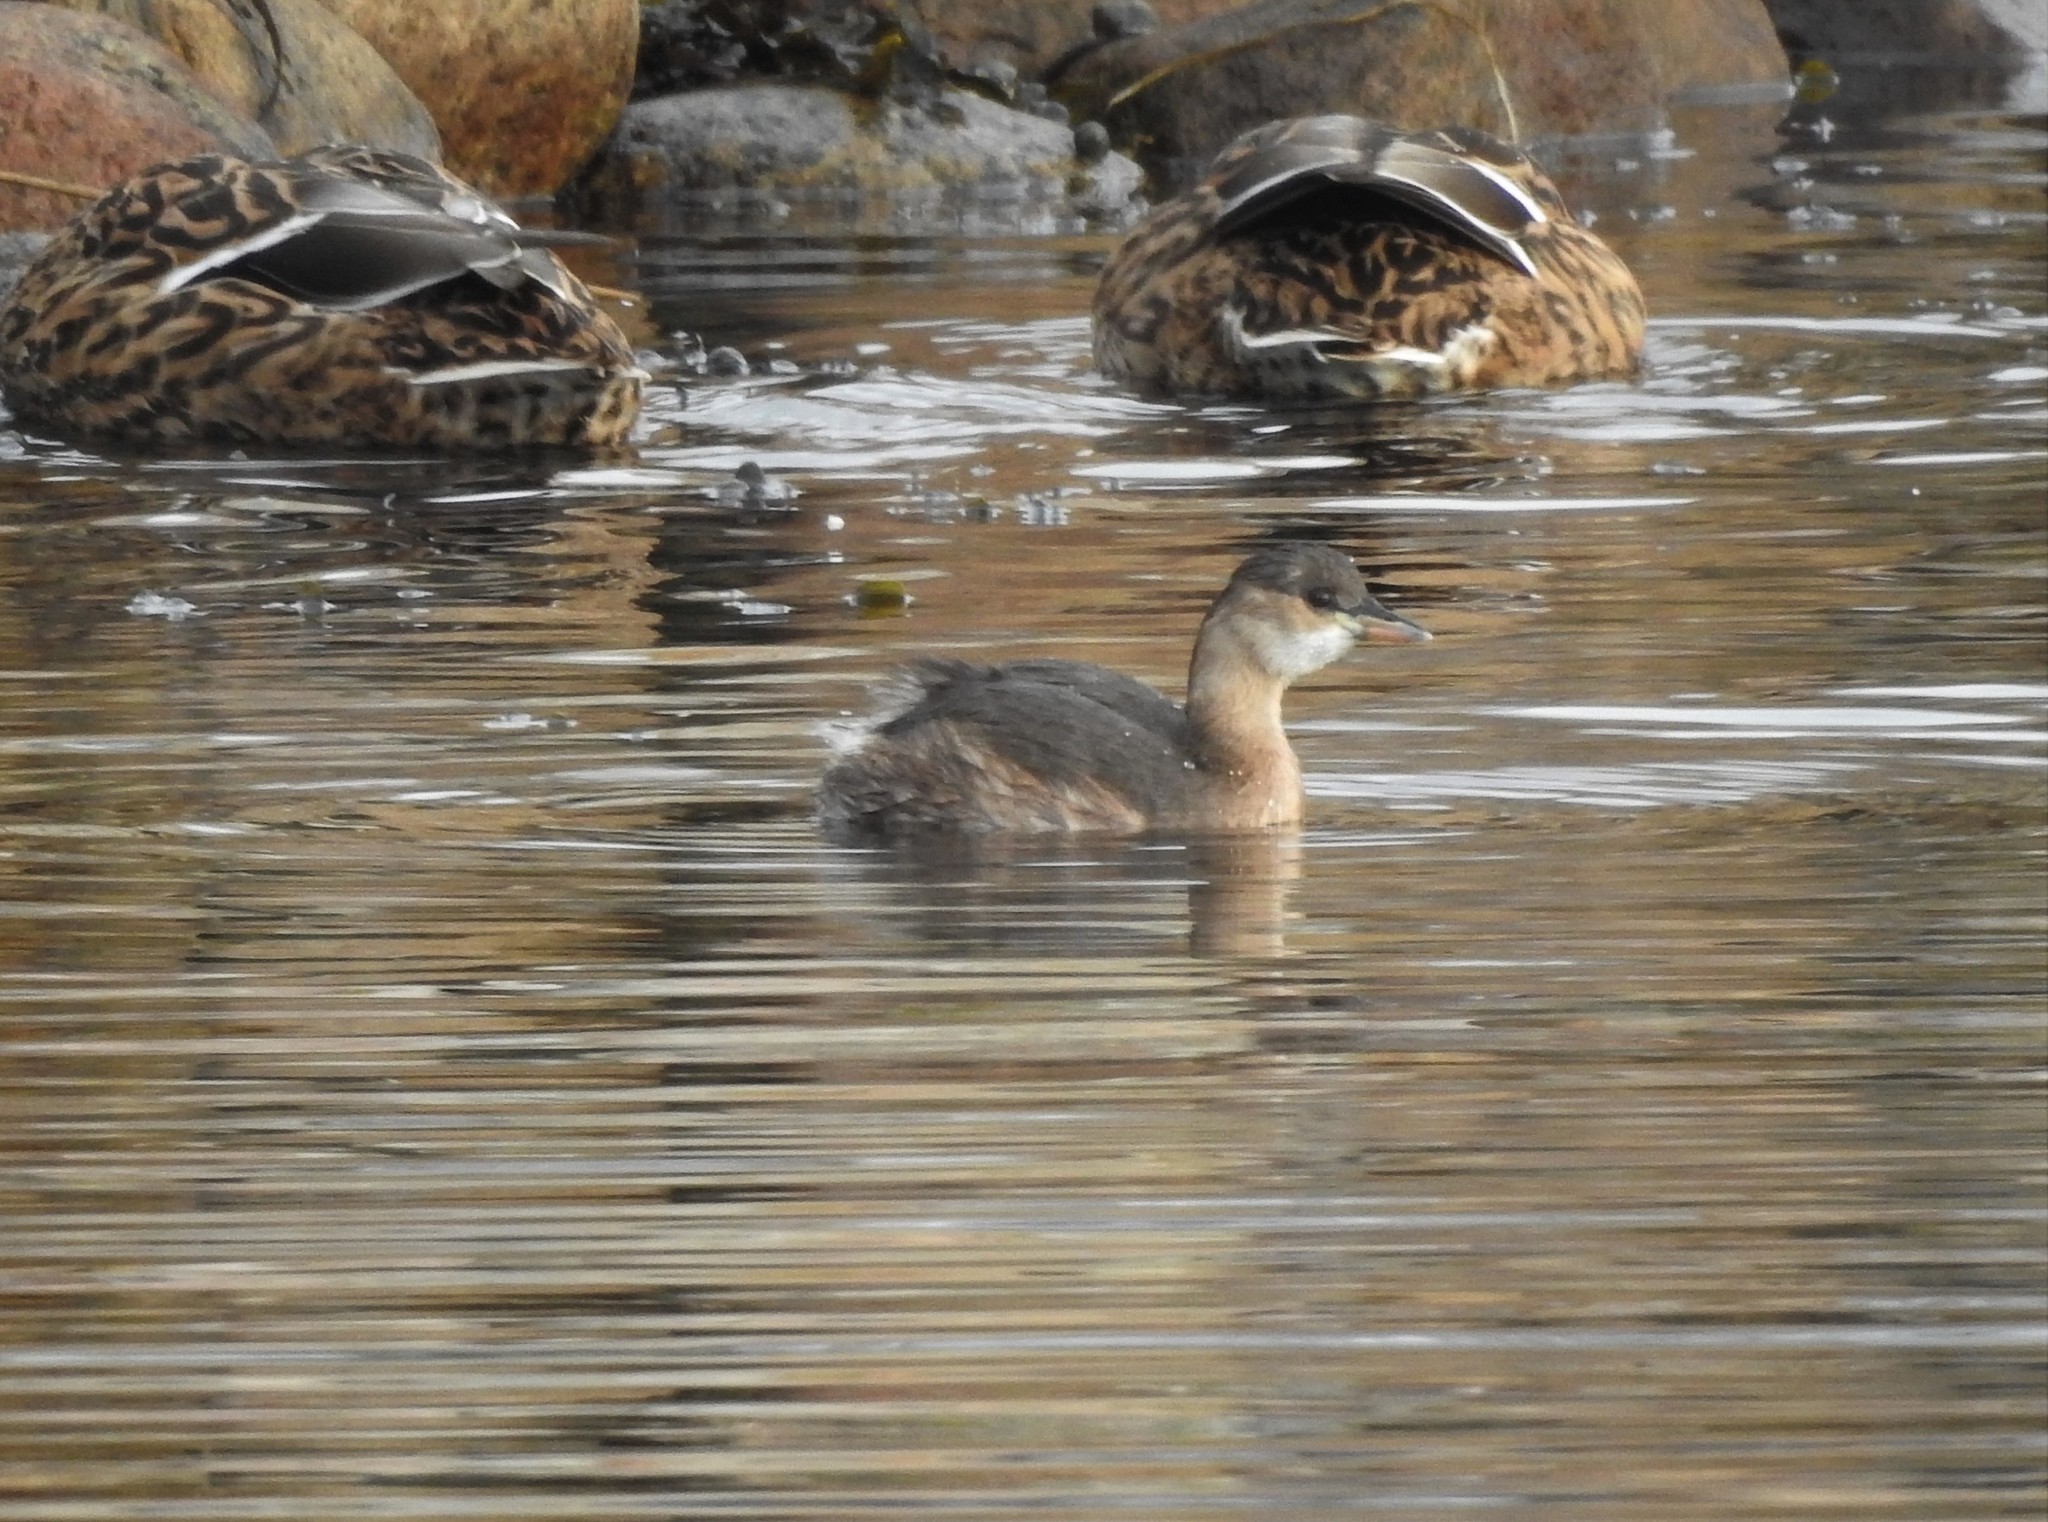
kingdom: Animalia
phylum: Chordata
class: Aves
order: Podicipediformes
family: Podicipedidae
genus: Tachybaptus
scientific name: Tachybaptus ruficollis
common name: Little grebe
